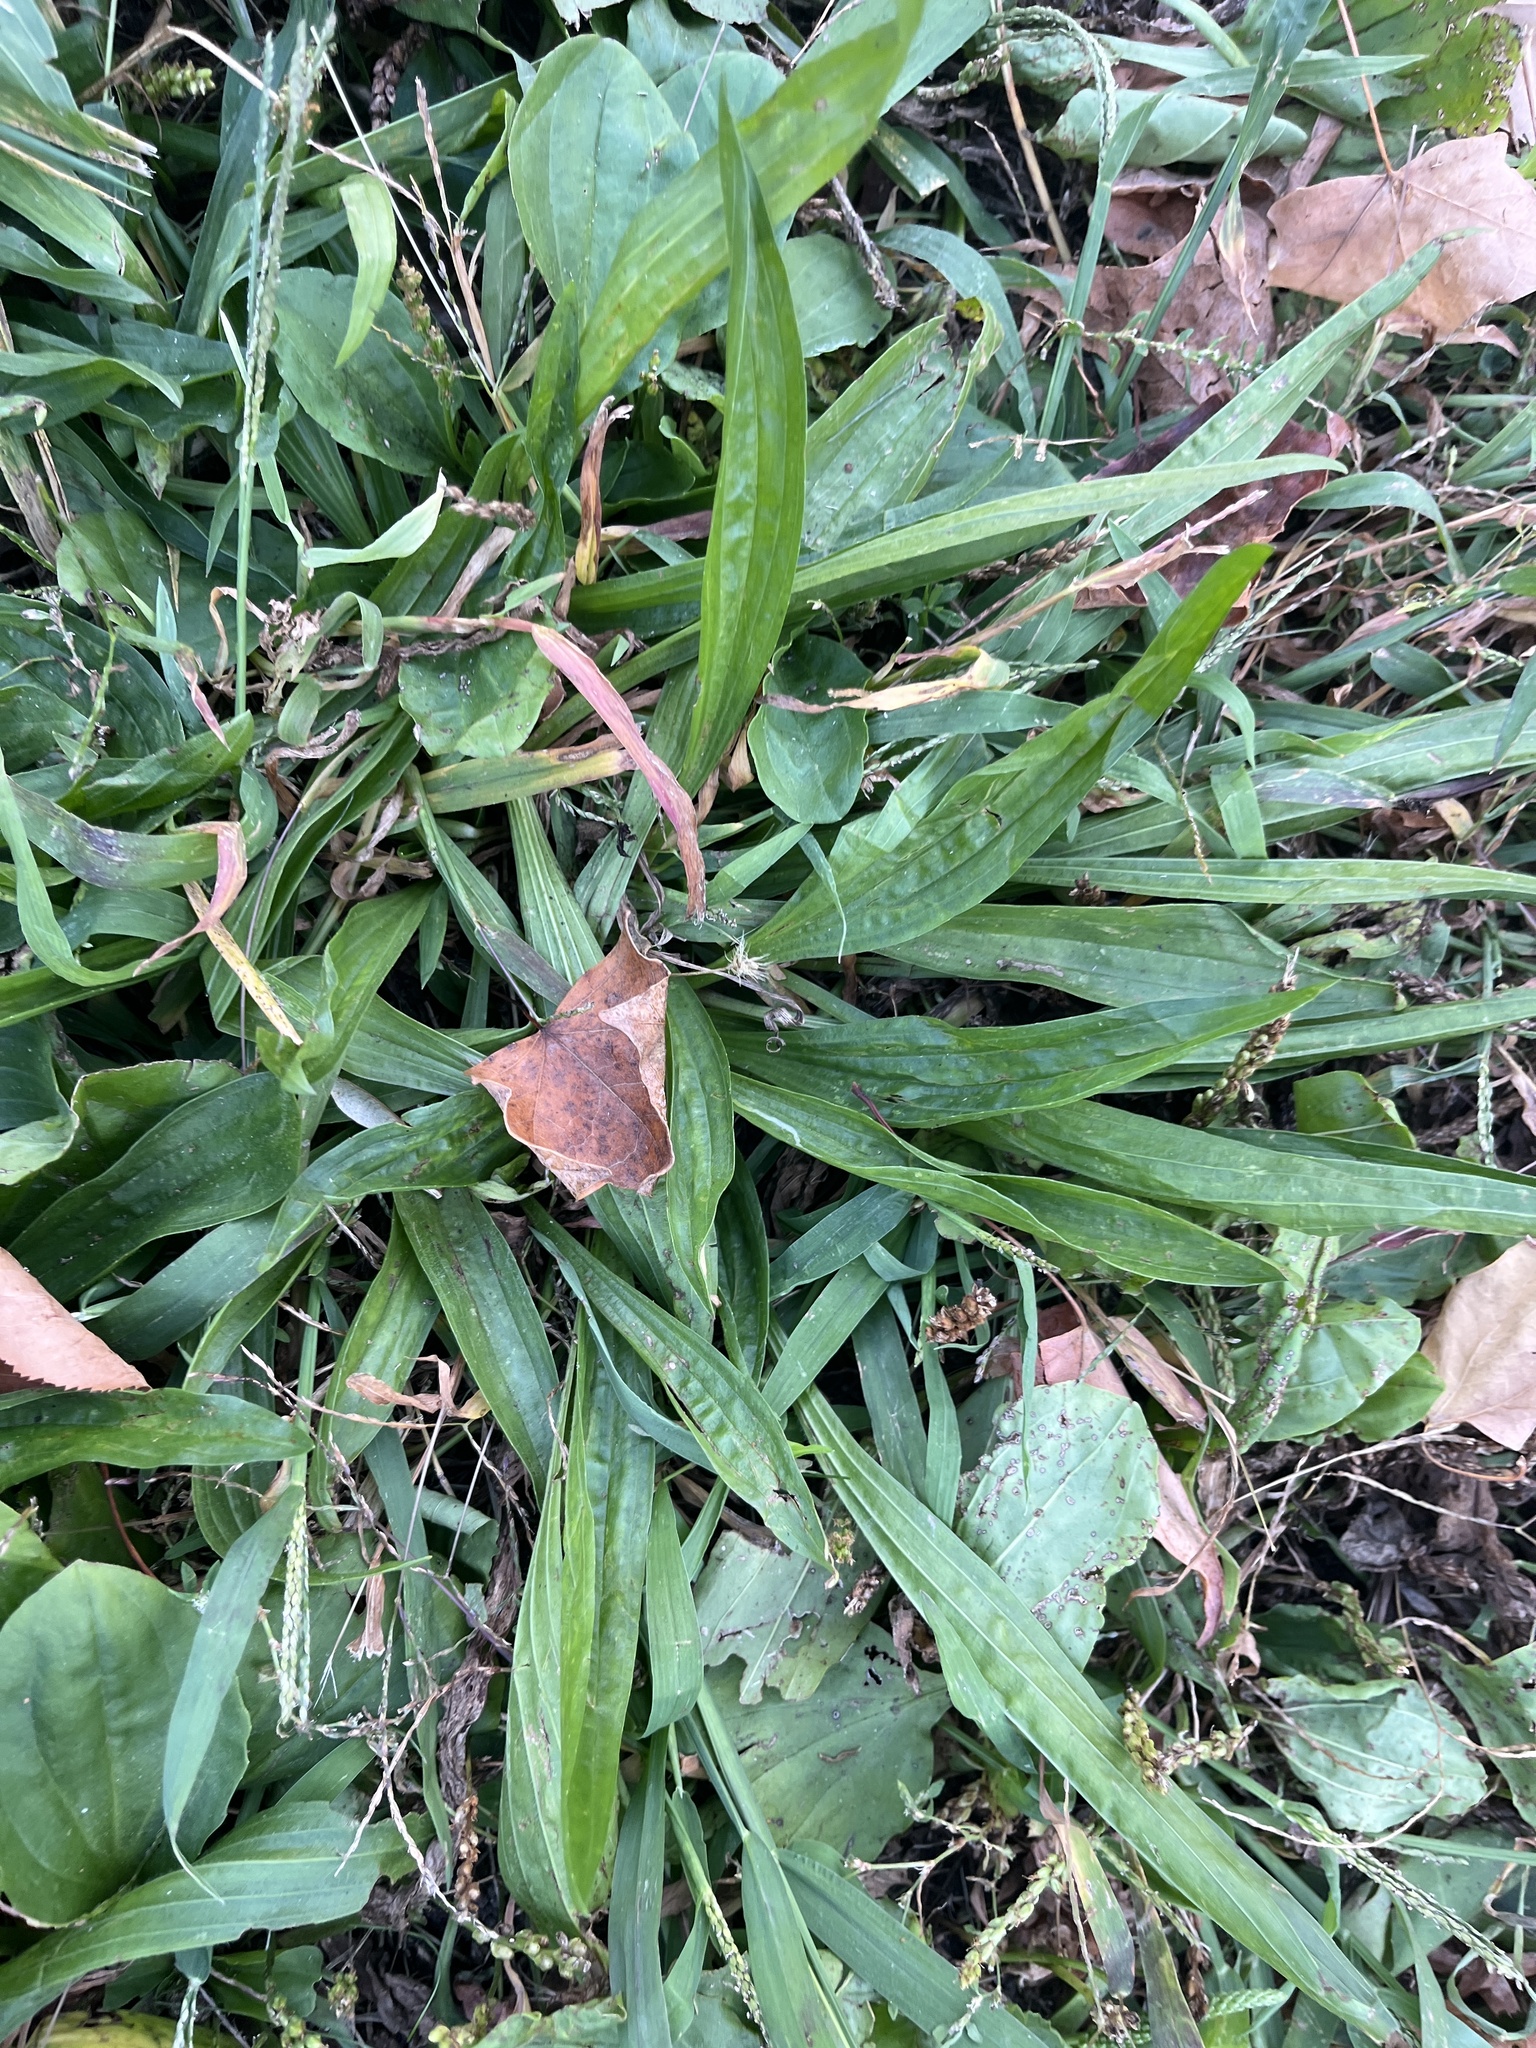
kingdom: Plantae
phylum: Tracheophyta
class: Magnoliopsida
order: Lamiales
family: Plantaginaceae
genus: Plantago
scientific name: Plantago lanceolata
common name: Ribwort plantain
